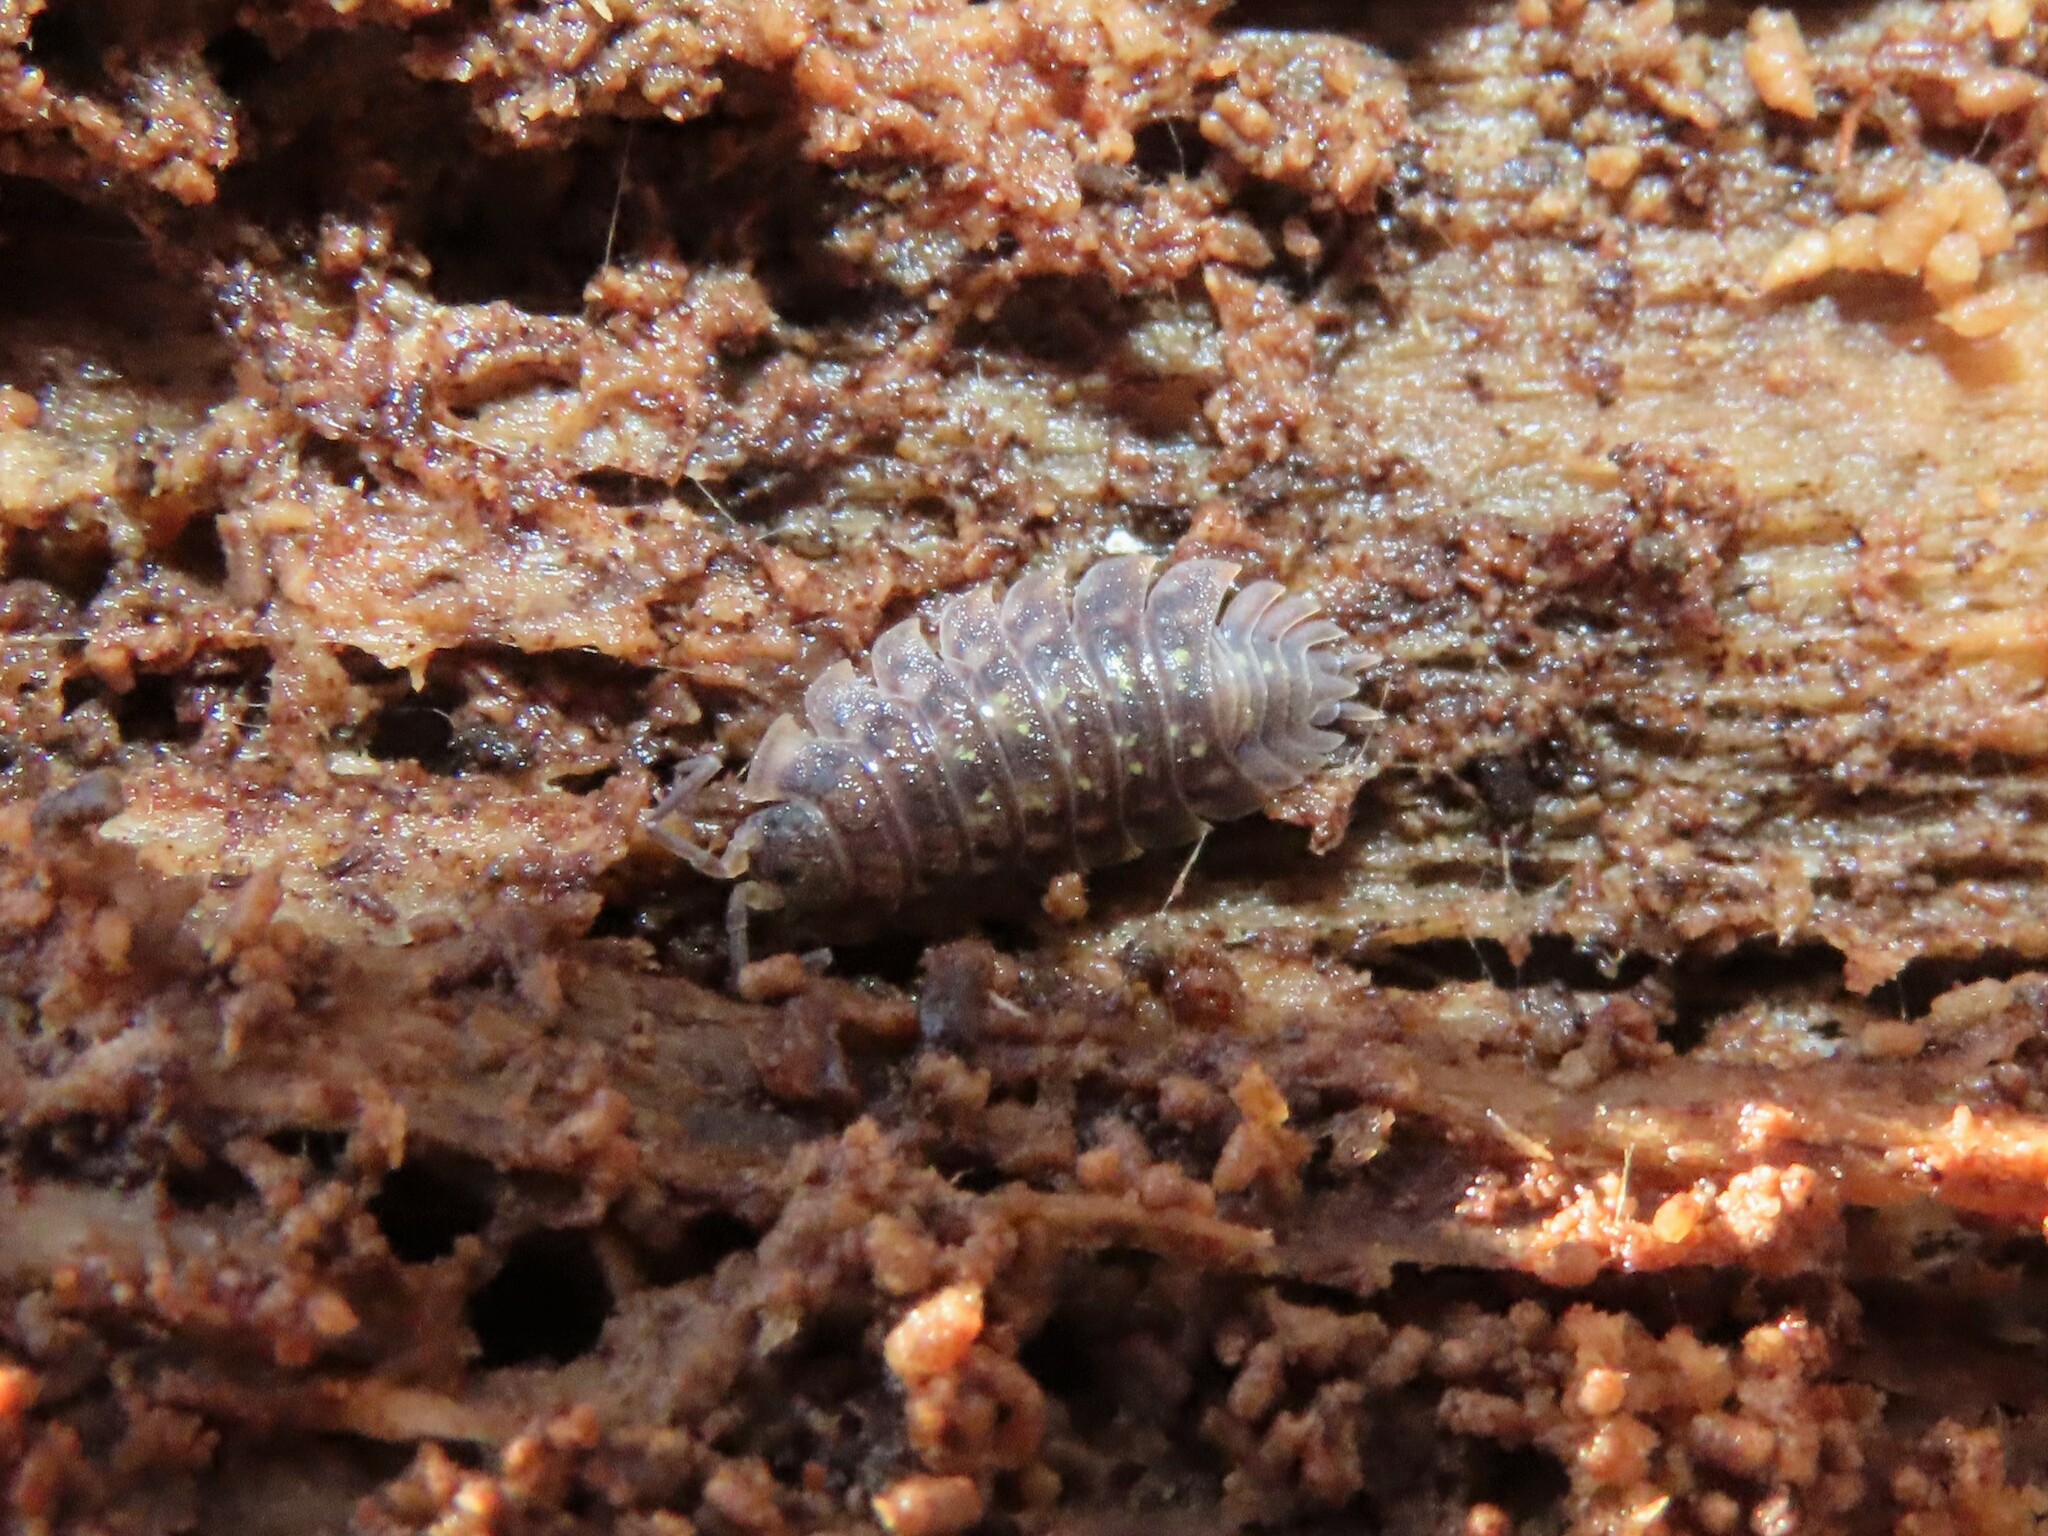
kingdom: Animalia
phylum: Arthropoda
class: Malacostraca
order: Isopoda
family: Oniscidae
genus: Oniscus
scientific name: Oniscus asellus
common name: Common shiny woodlouse
